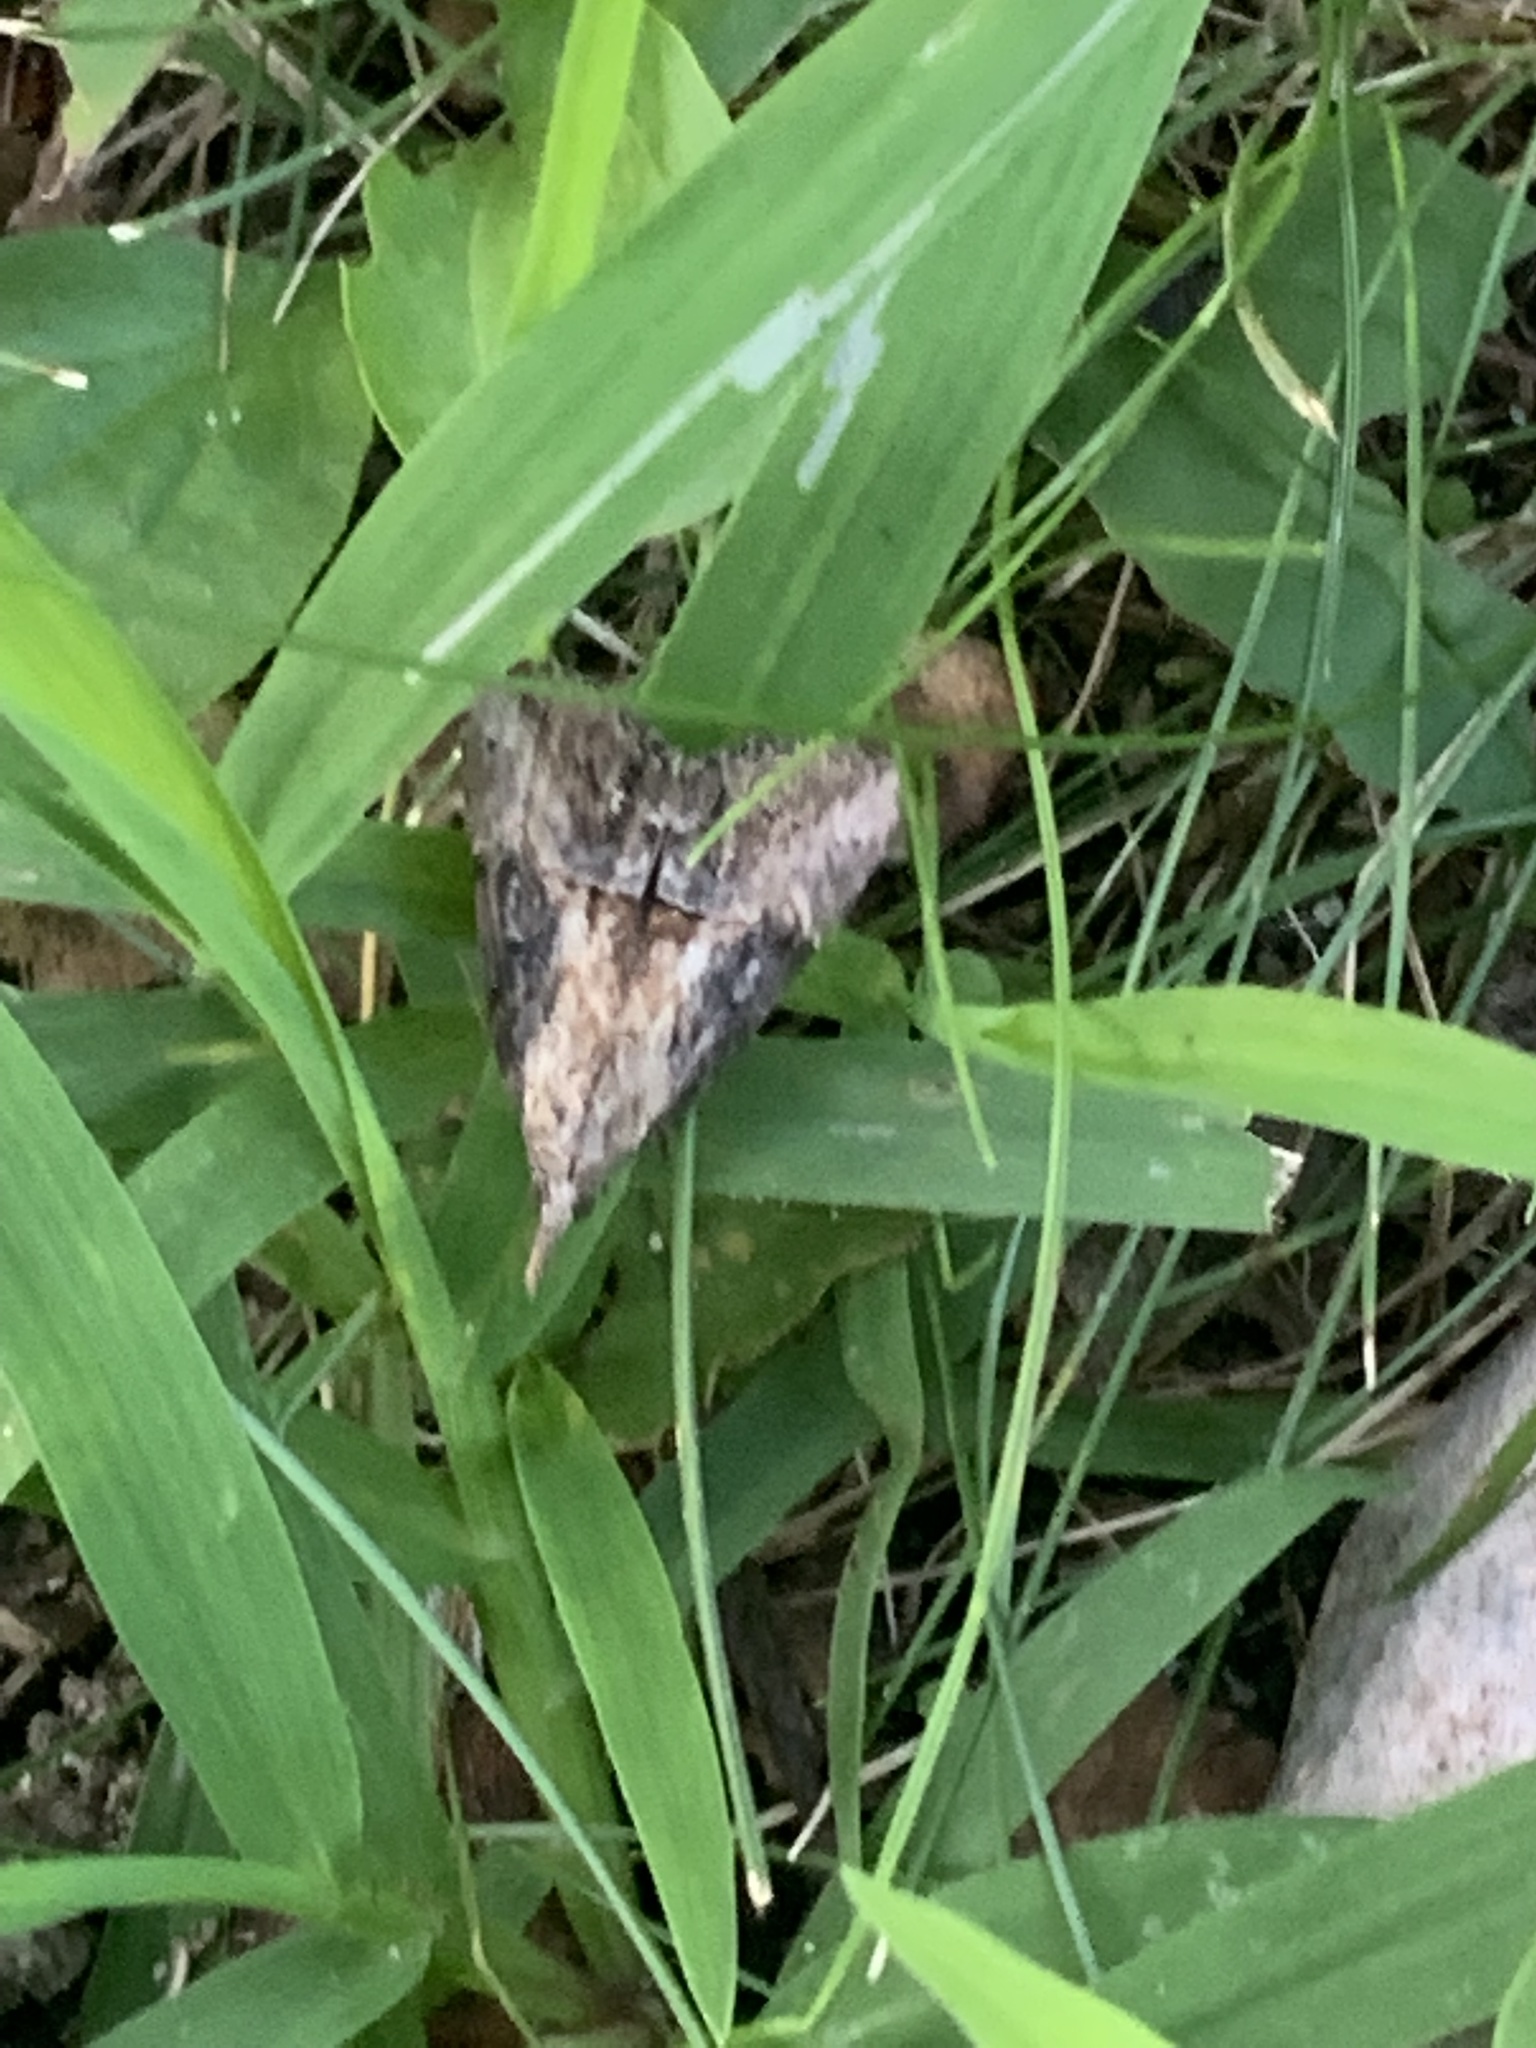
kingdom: Animalia
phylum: Arthropoda
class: Insecta
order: Lepidoptera
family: Erebidae
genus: Hypena
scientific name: Hypena scabra
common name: Green cloverworm
